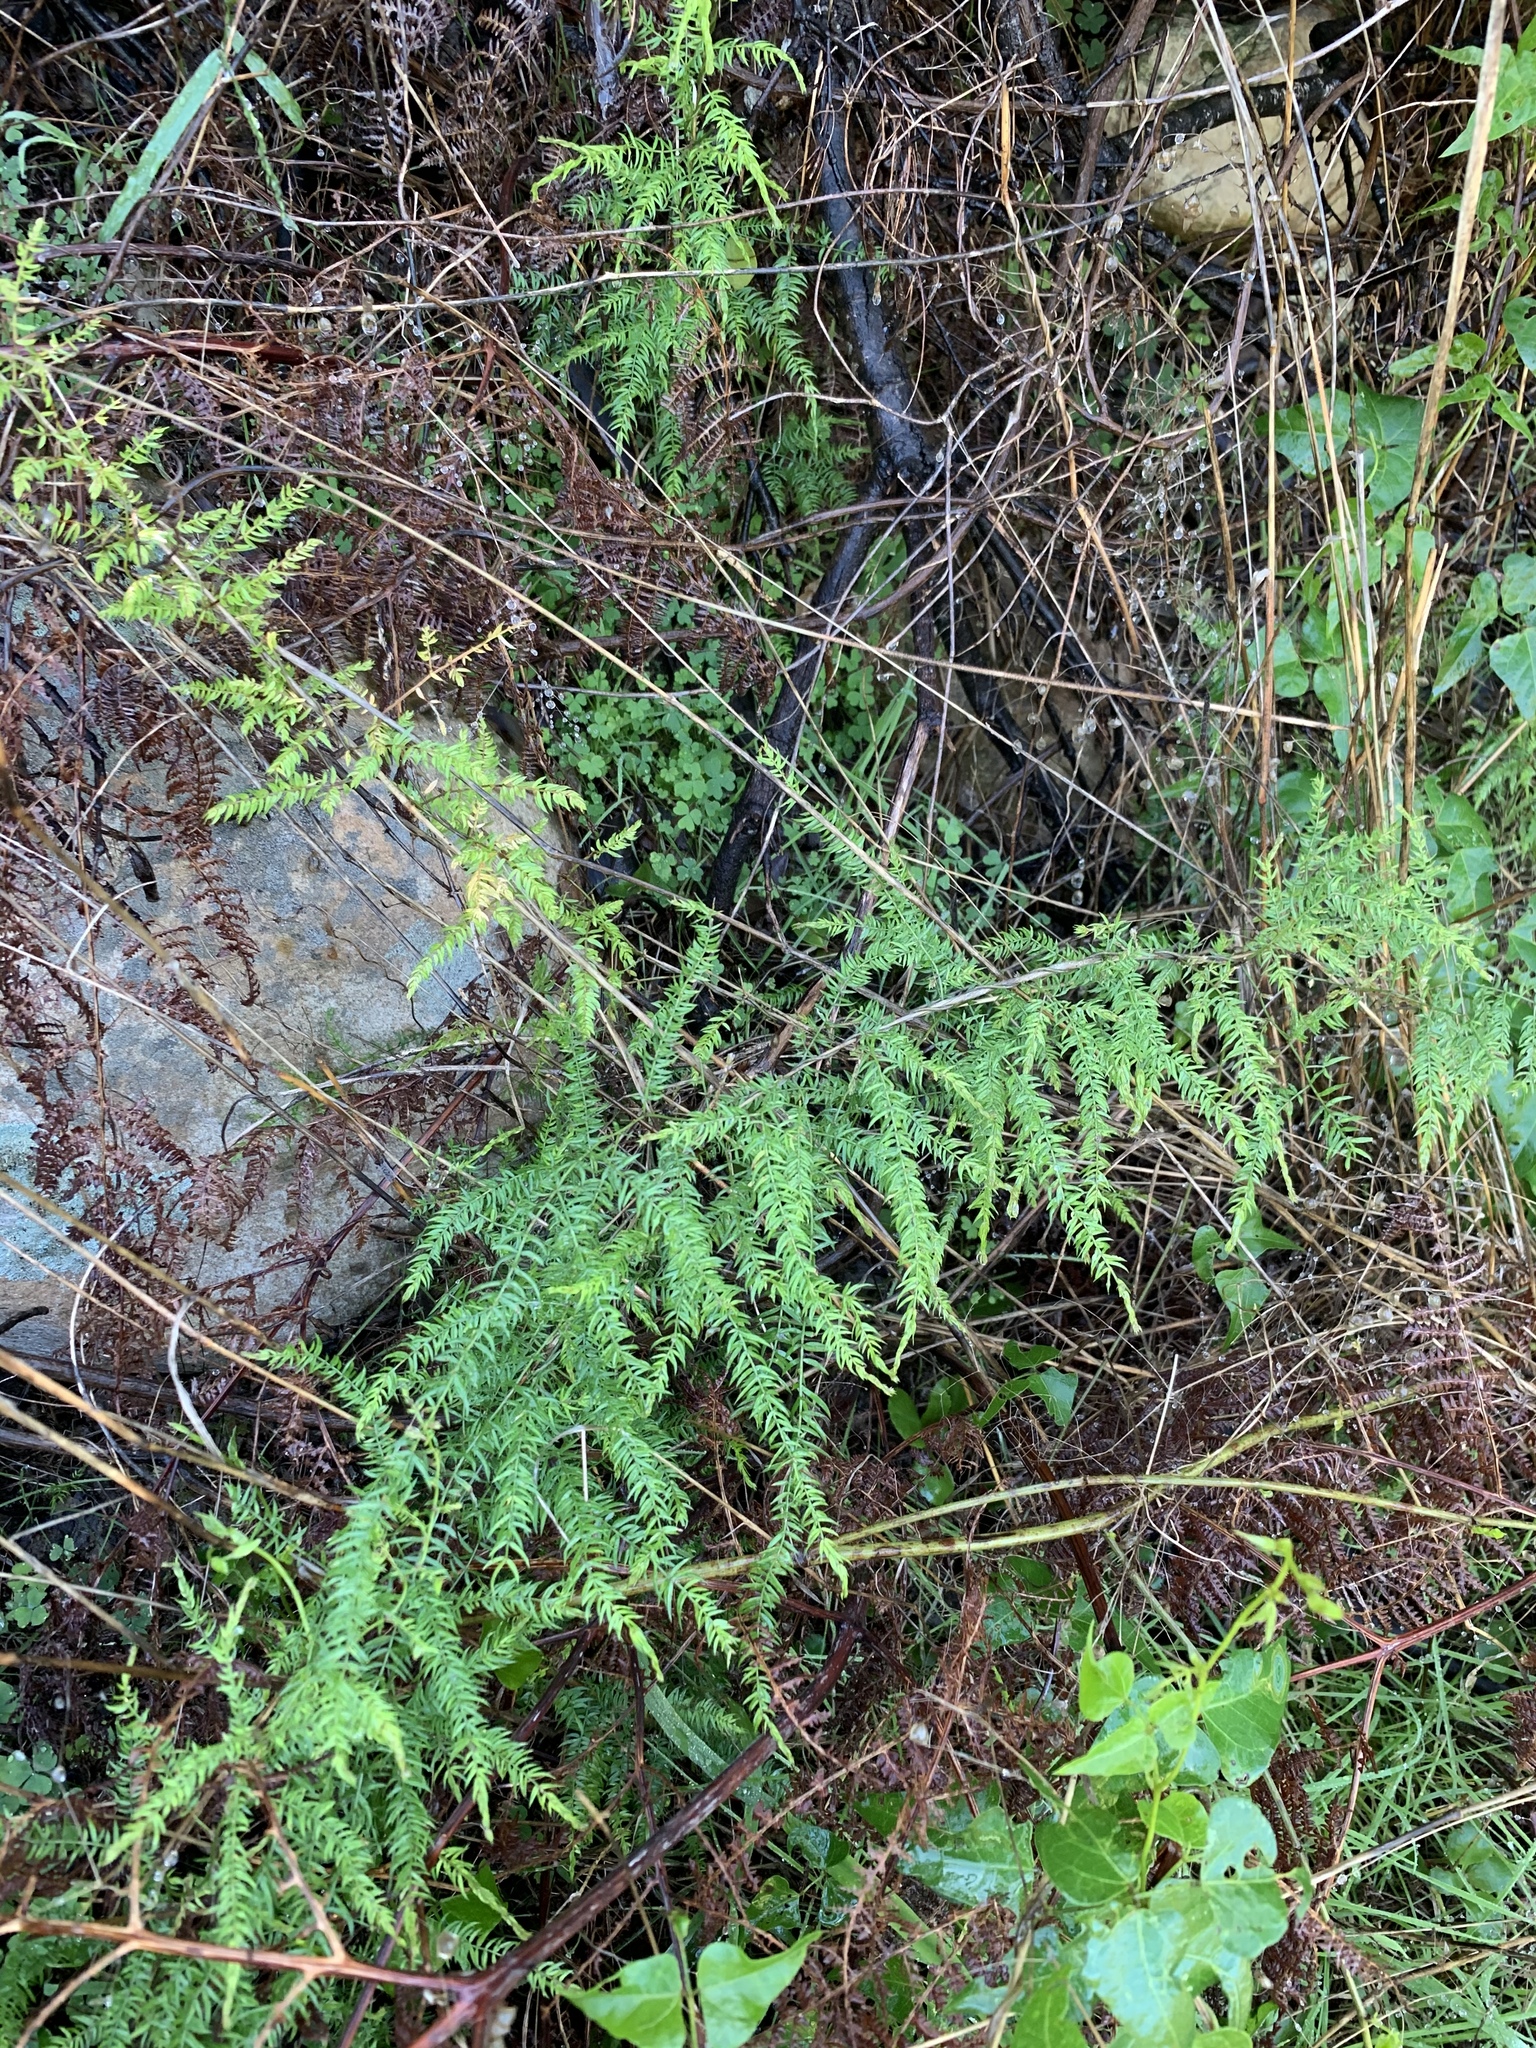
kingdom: Plantae
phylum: Tracheophyta
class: Liliopsida
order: Asparagales
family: Asparagaceae
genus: Asparagus
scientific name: Asparagus scandens
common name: Asparagus-fern
